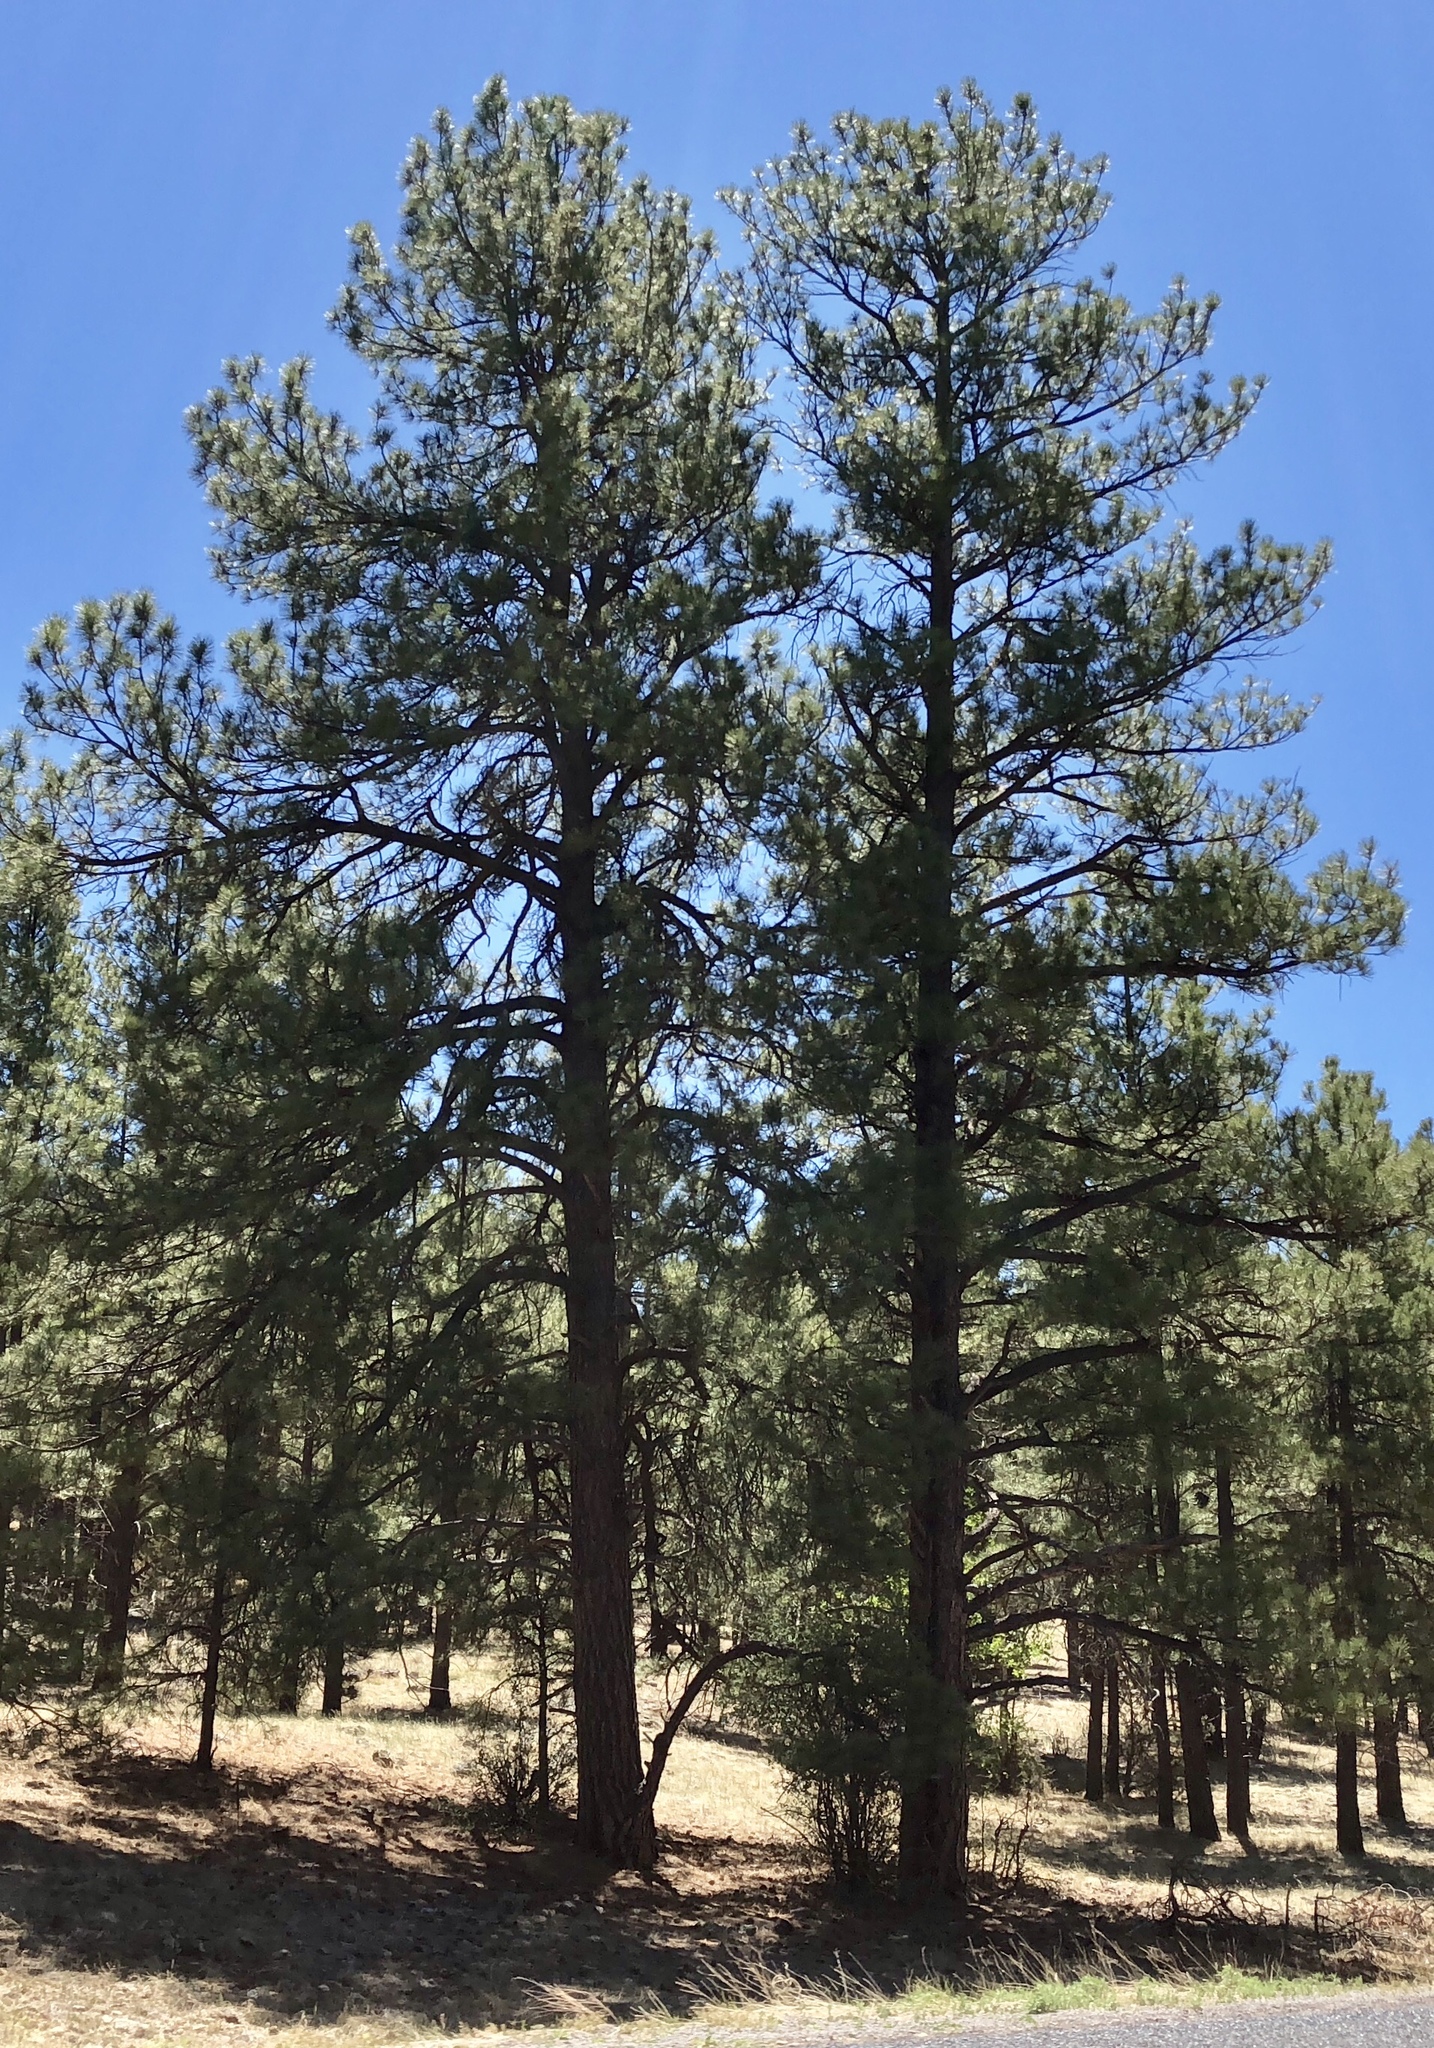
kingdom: Plantae
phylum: Tracheophyta
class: Pinopsida
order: Pinales
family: Pinaceae
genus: Pinus
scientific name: Pinus ponderosa
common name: Western yellow-pine
